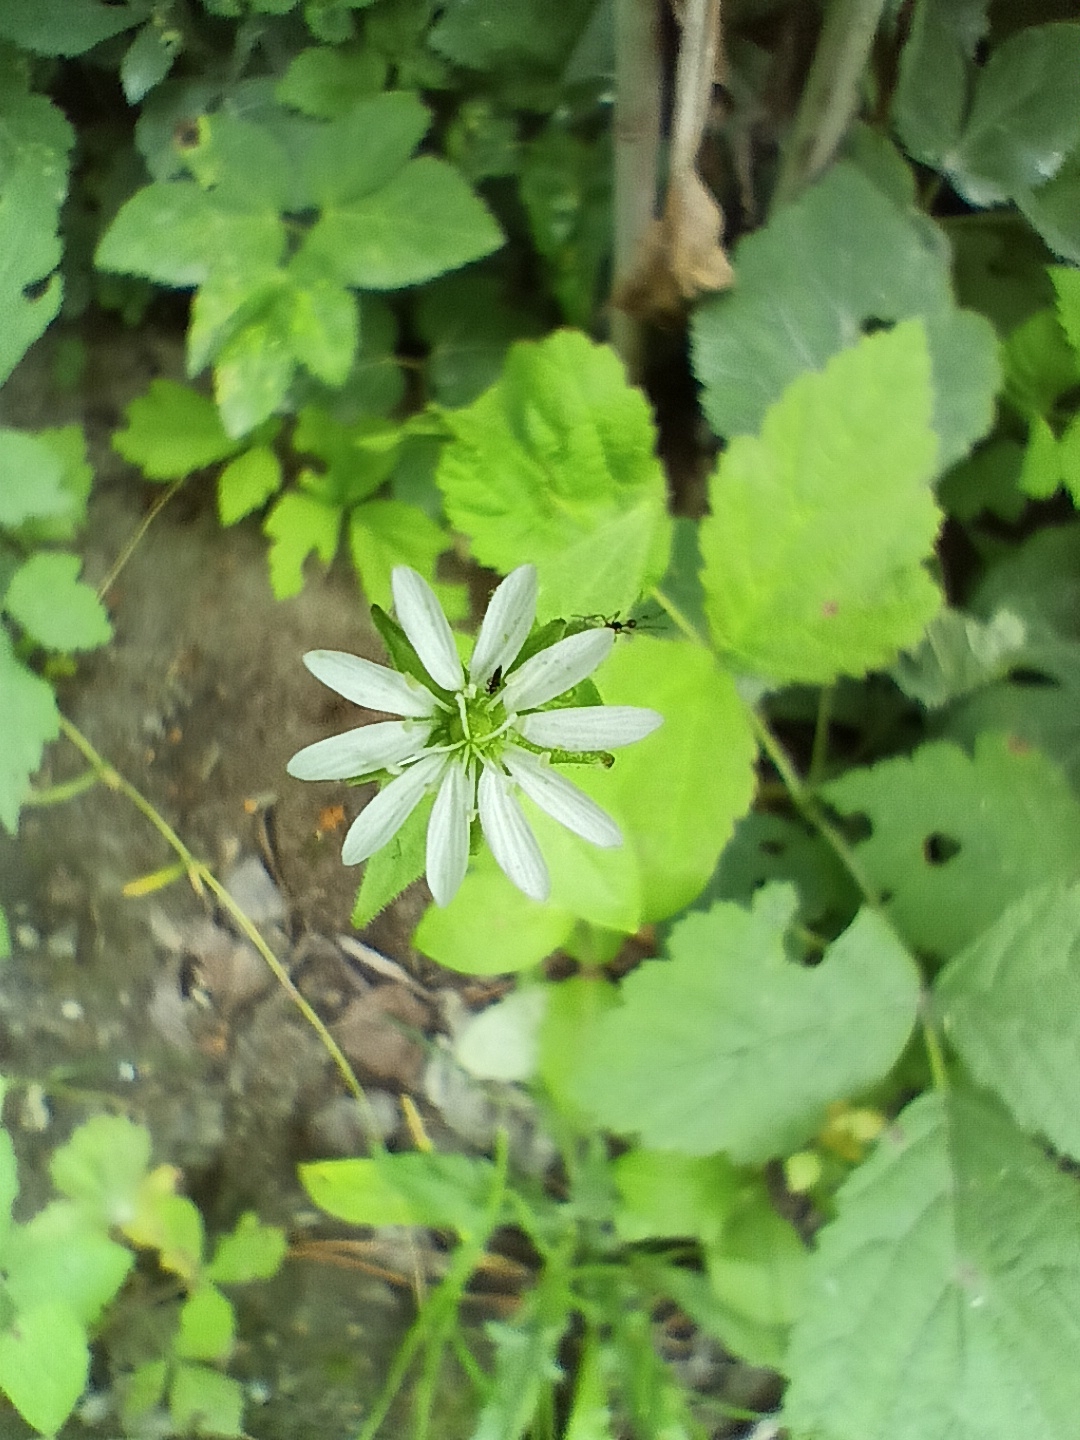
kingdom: Plantae
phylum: Tracheophyta
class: Magnoliopsida
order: Caryophyllales
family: Caryophyllaceae
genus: Stellaria
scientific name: Stellaria graminea
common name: Grass-like starwort
